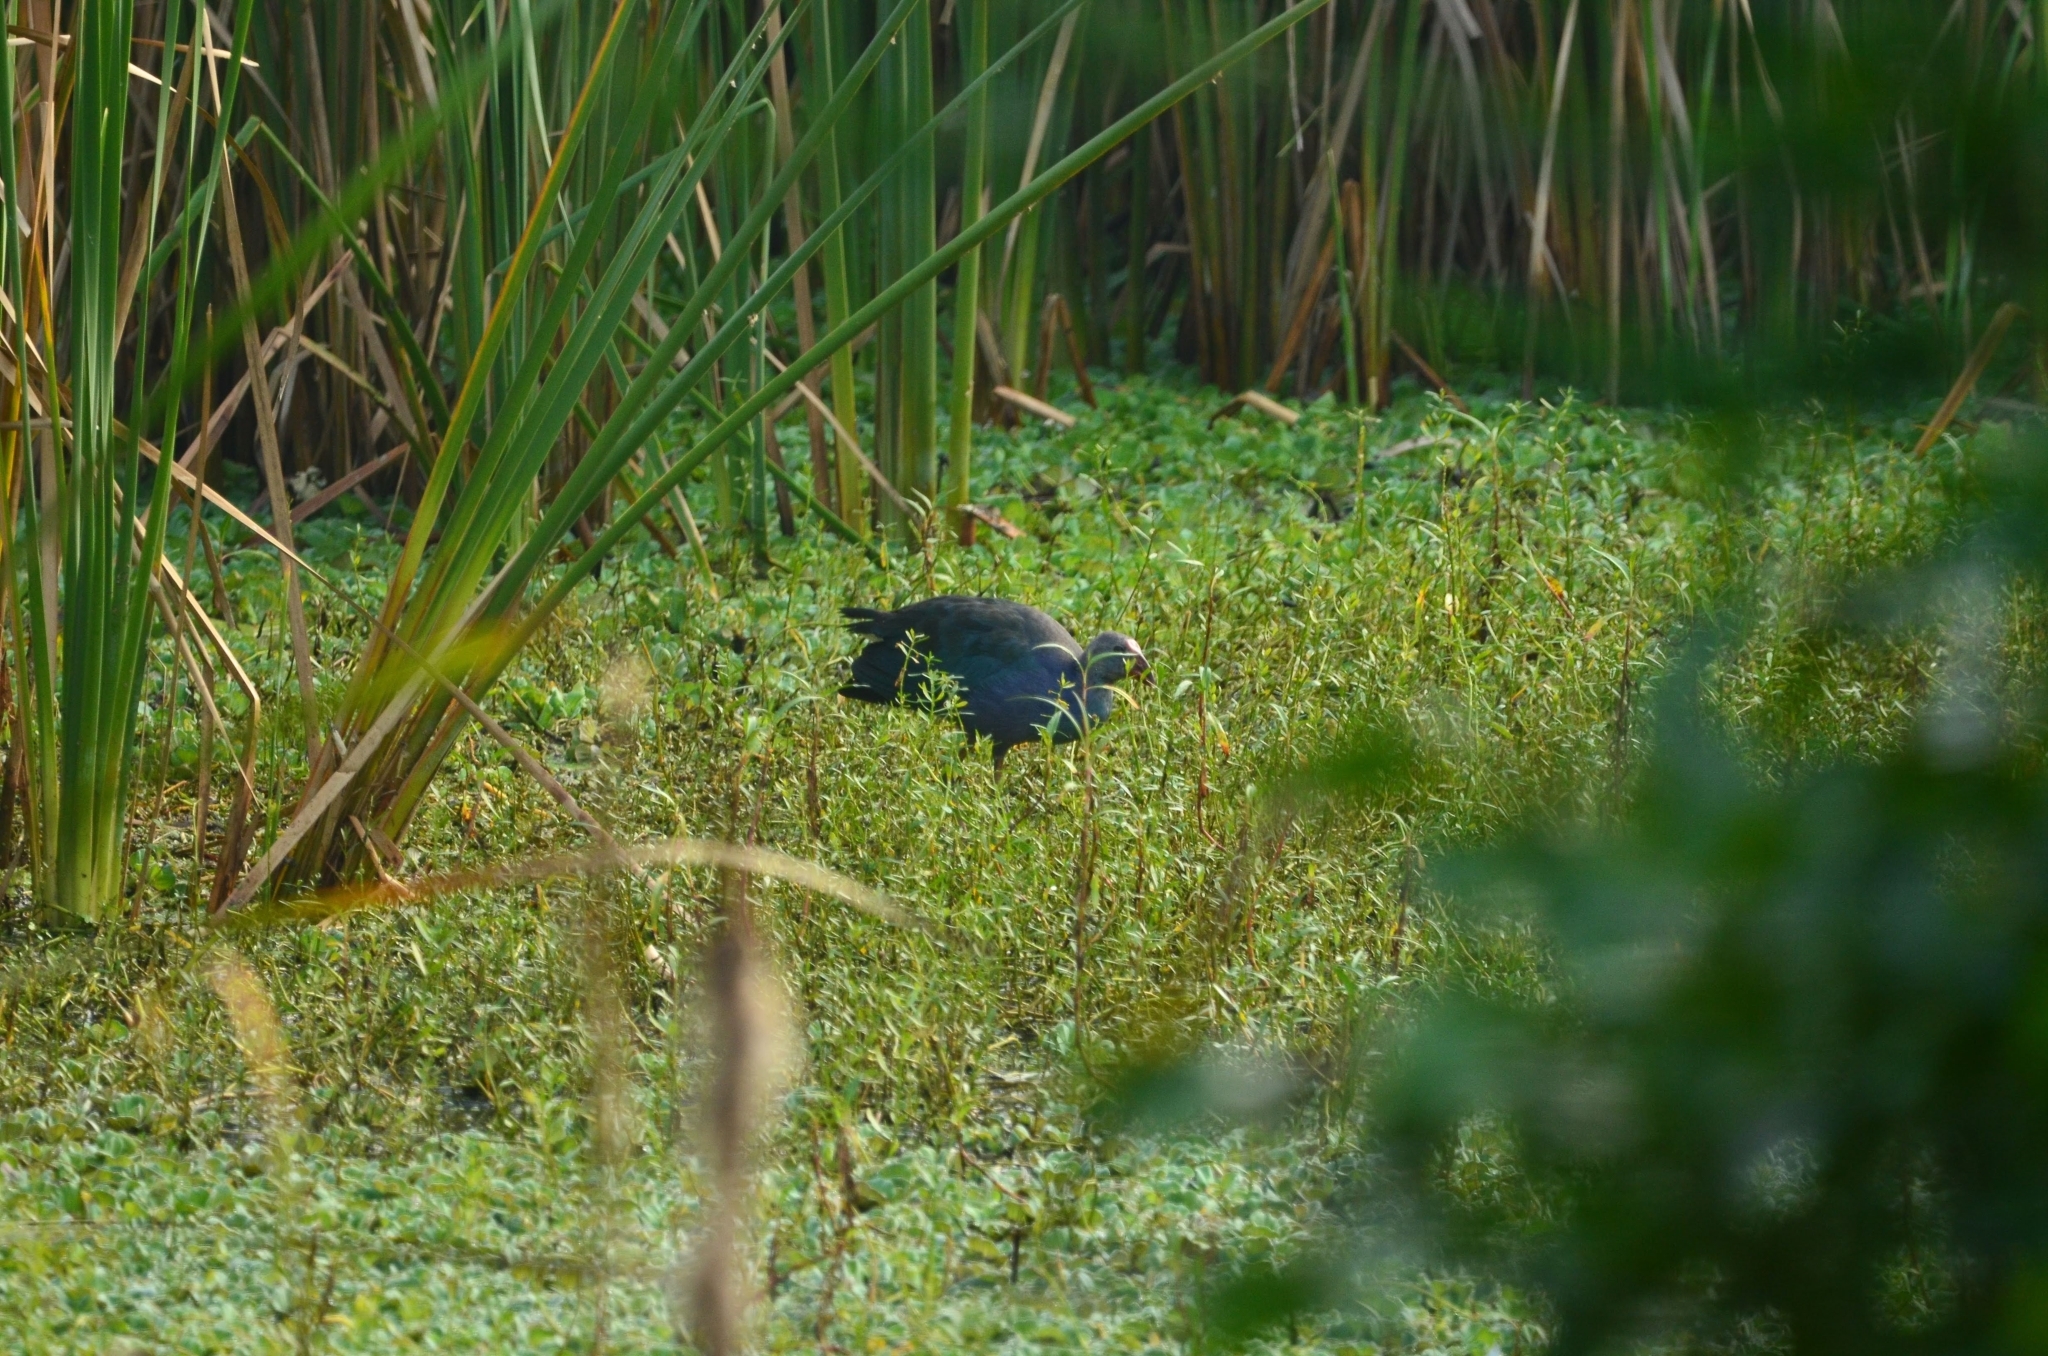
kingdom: Animalia
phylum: Chordata
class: Aves
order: Gruiformes
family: Rallidae
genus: Porphyrio
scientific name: Porphyrio porphyrio
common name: Purple swamphen
